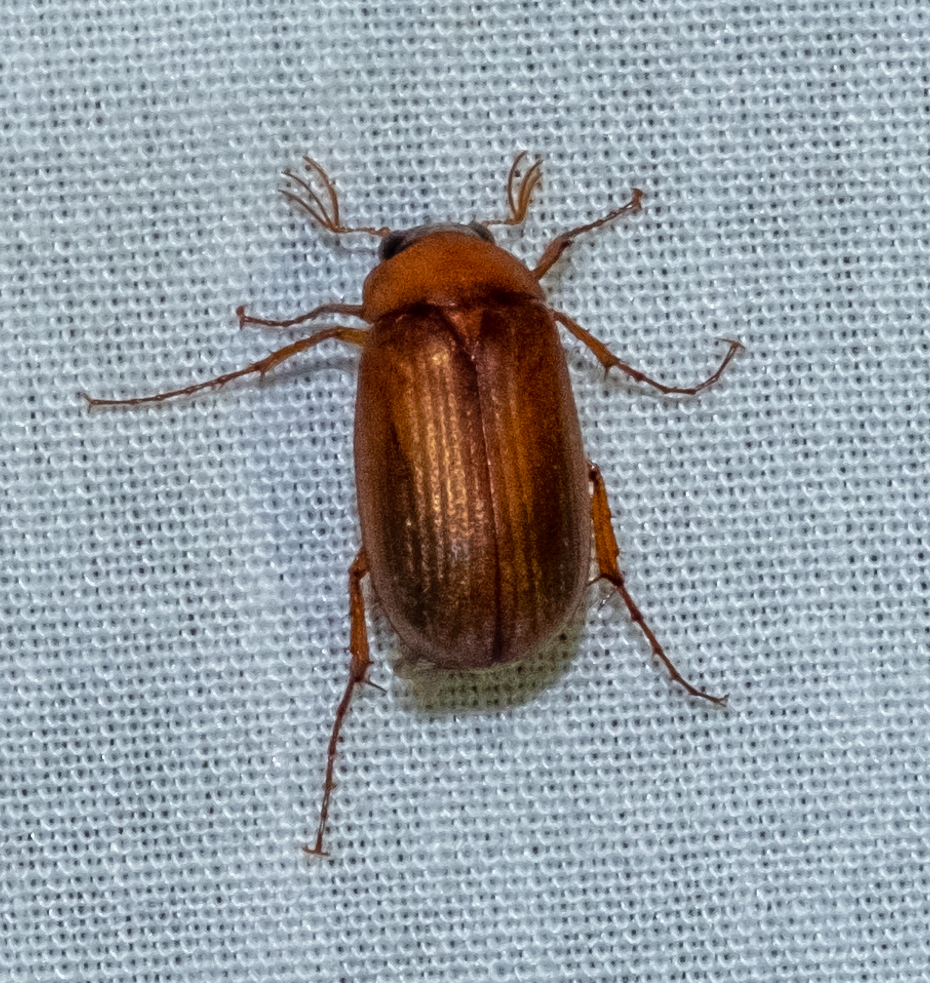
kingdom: Animalia
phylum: Arthropoda
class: Insecta
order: Coleoptera
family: Scarabaeidae
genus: Serica
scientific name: Serica brunnea
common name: Brown chafer
